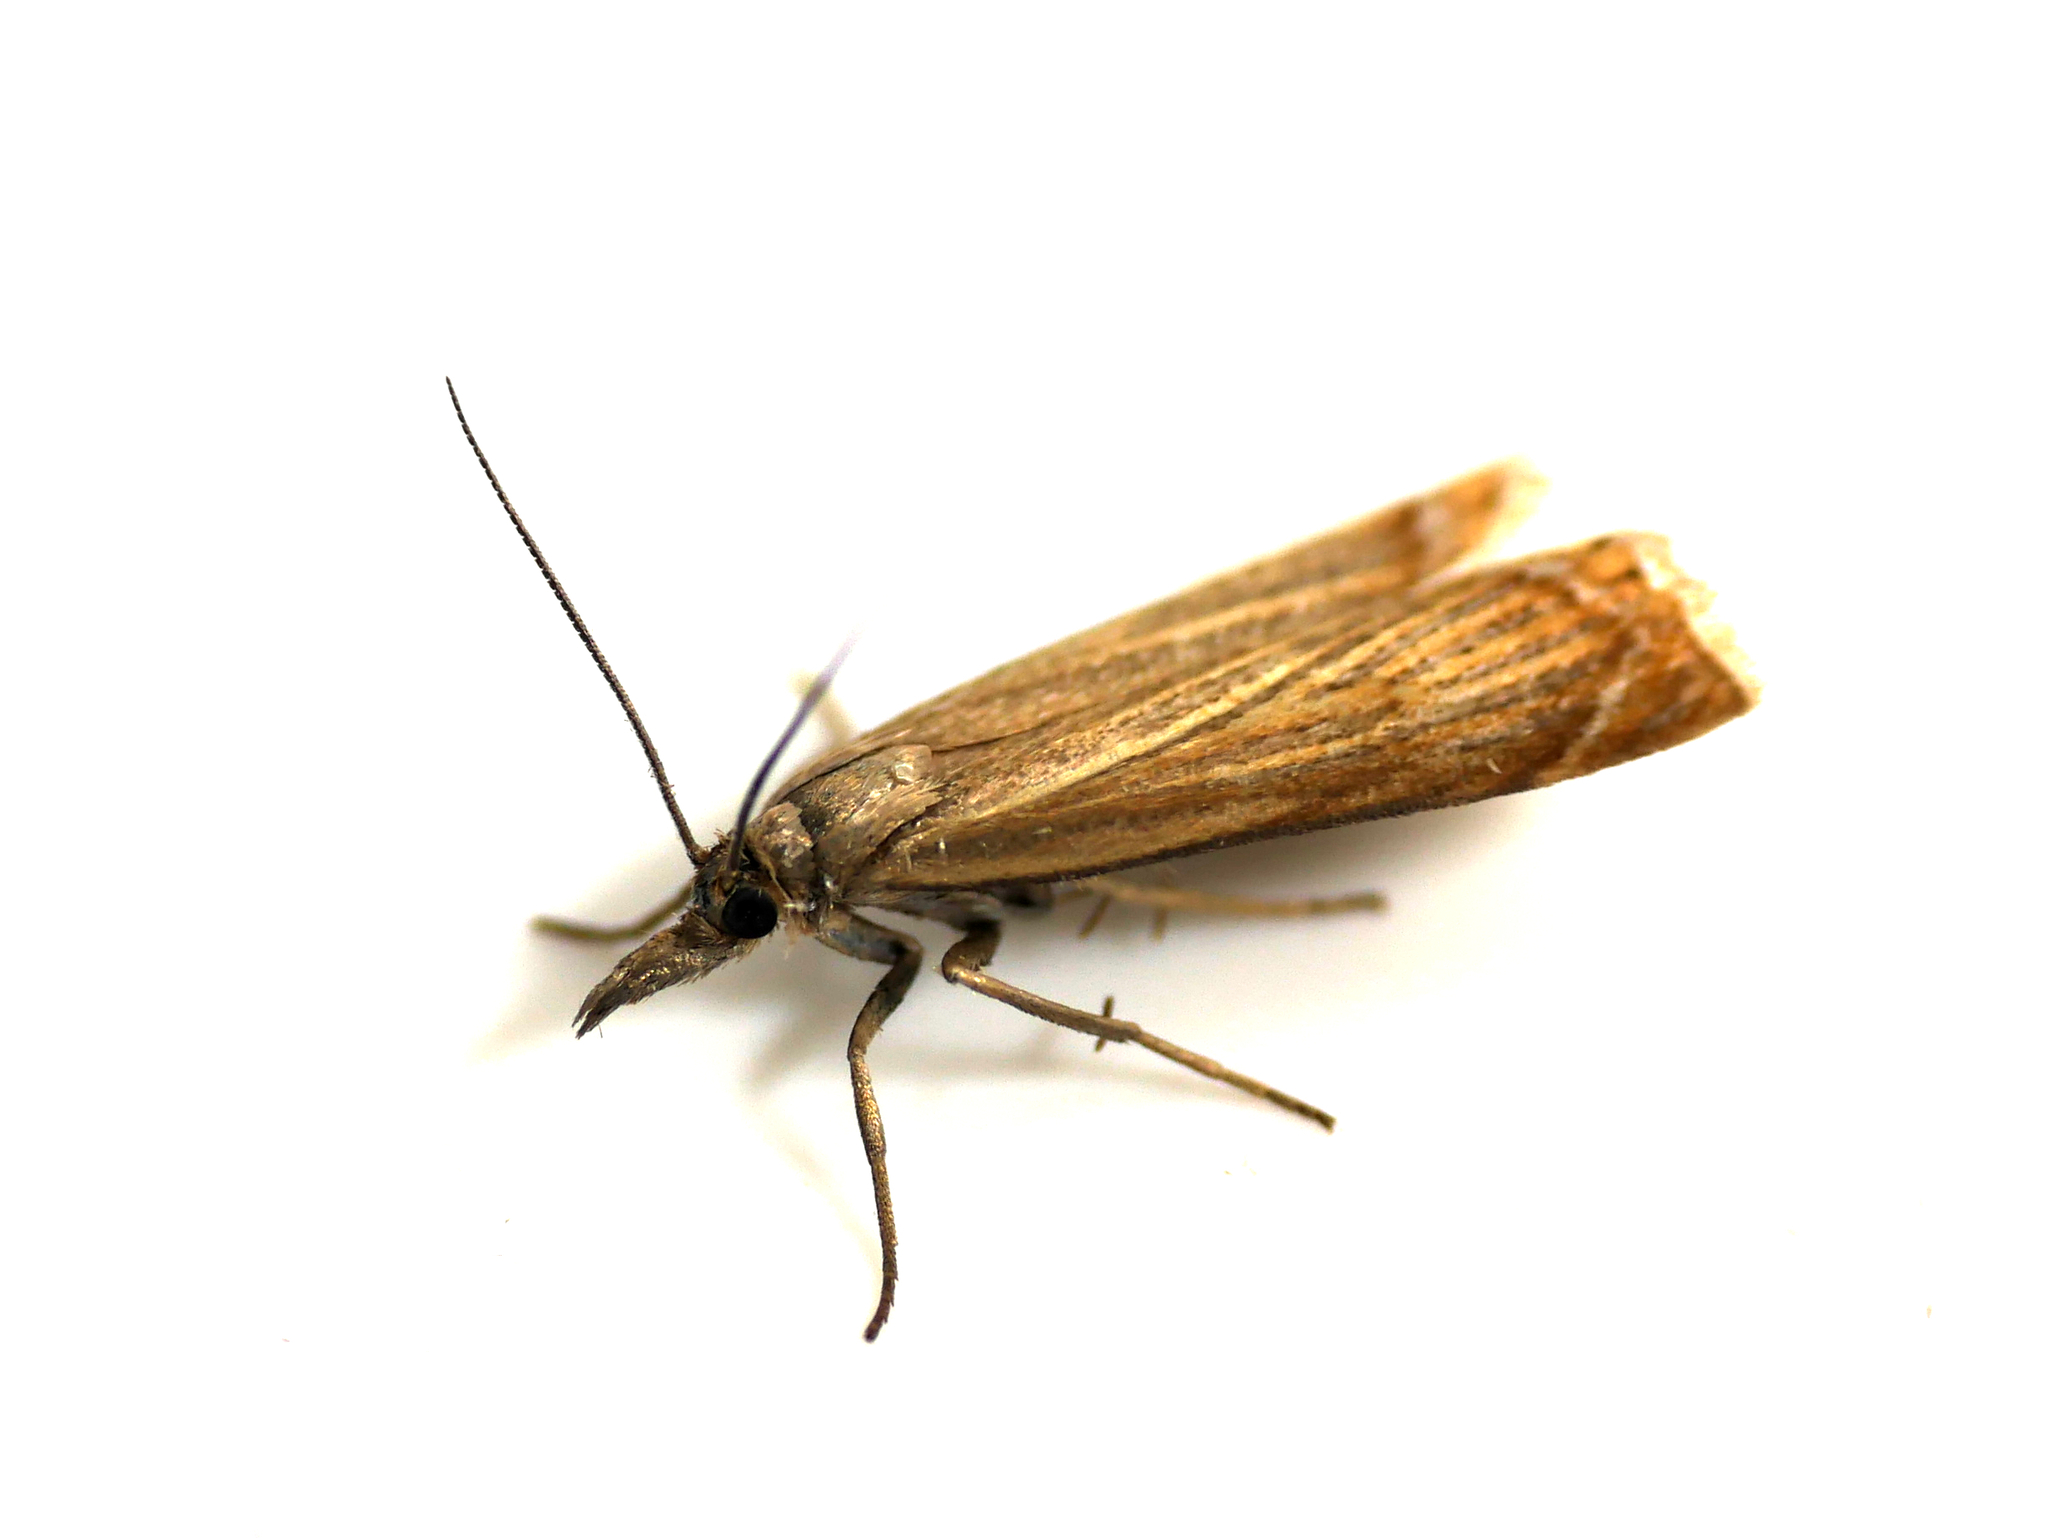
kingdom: Animalia
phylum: Arthropoda
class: Insecta
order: Lepidoptera
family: Crambidae
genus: Chrysoteuchia
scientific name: Chrysoteuchia culmella
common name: Garden grass-veneer
